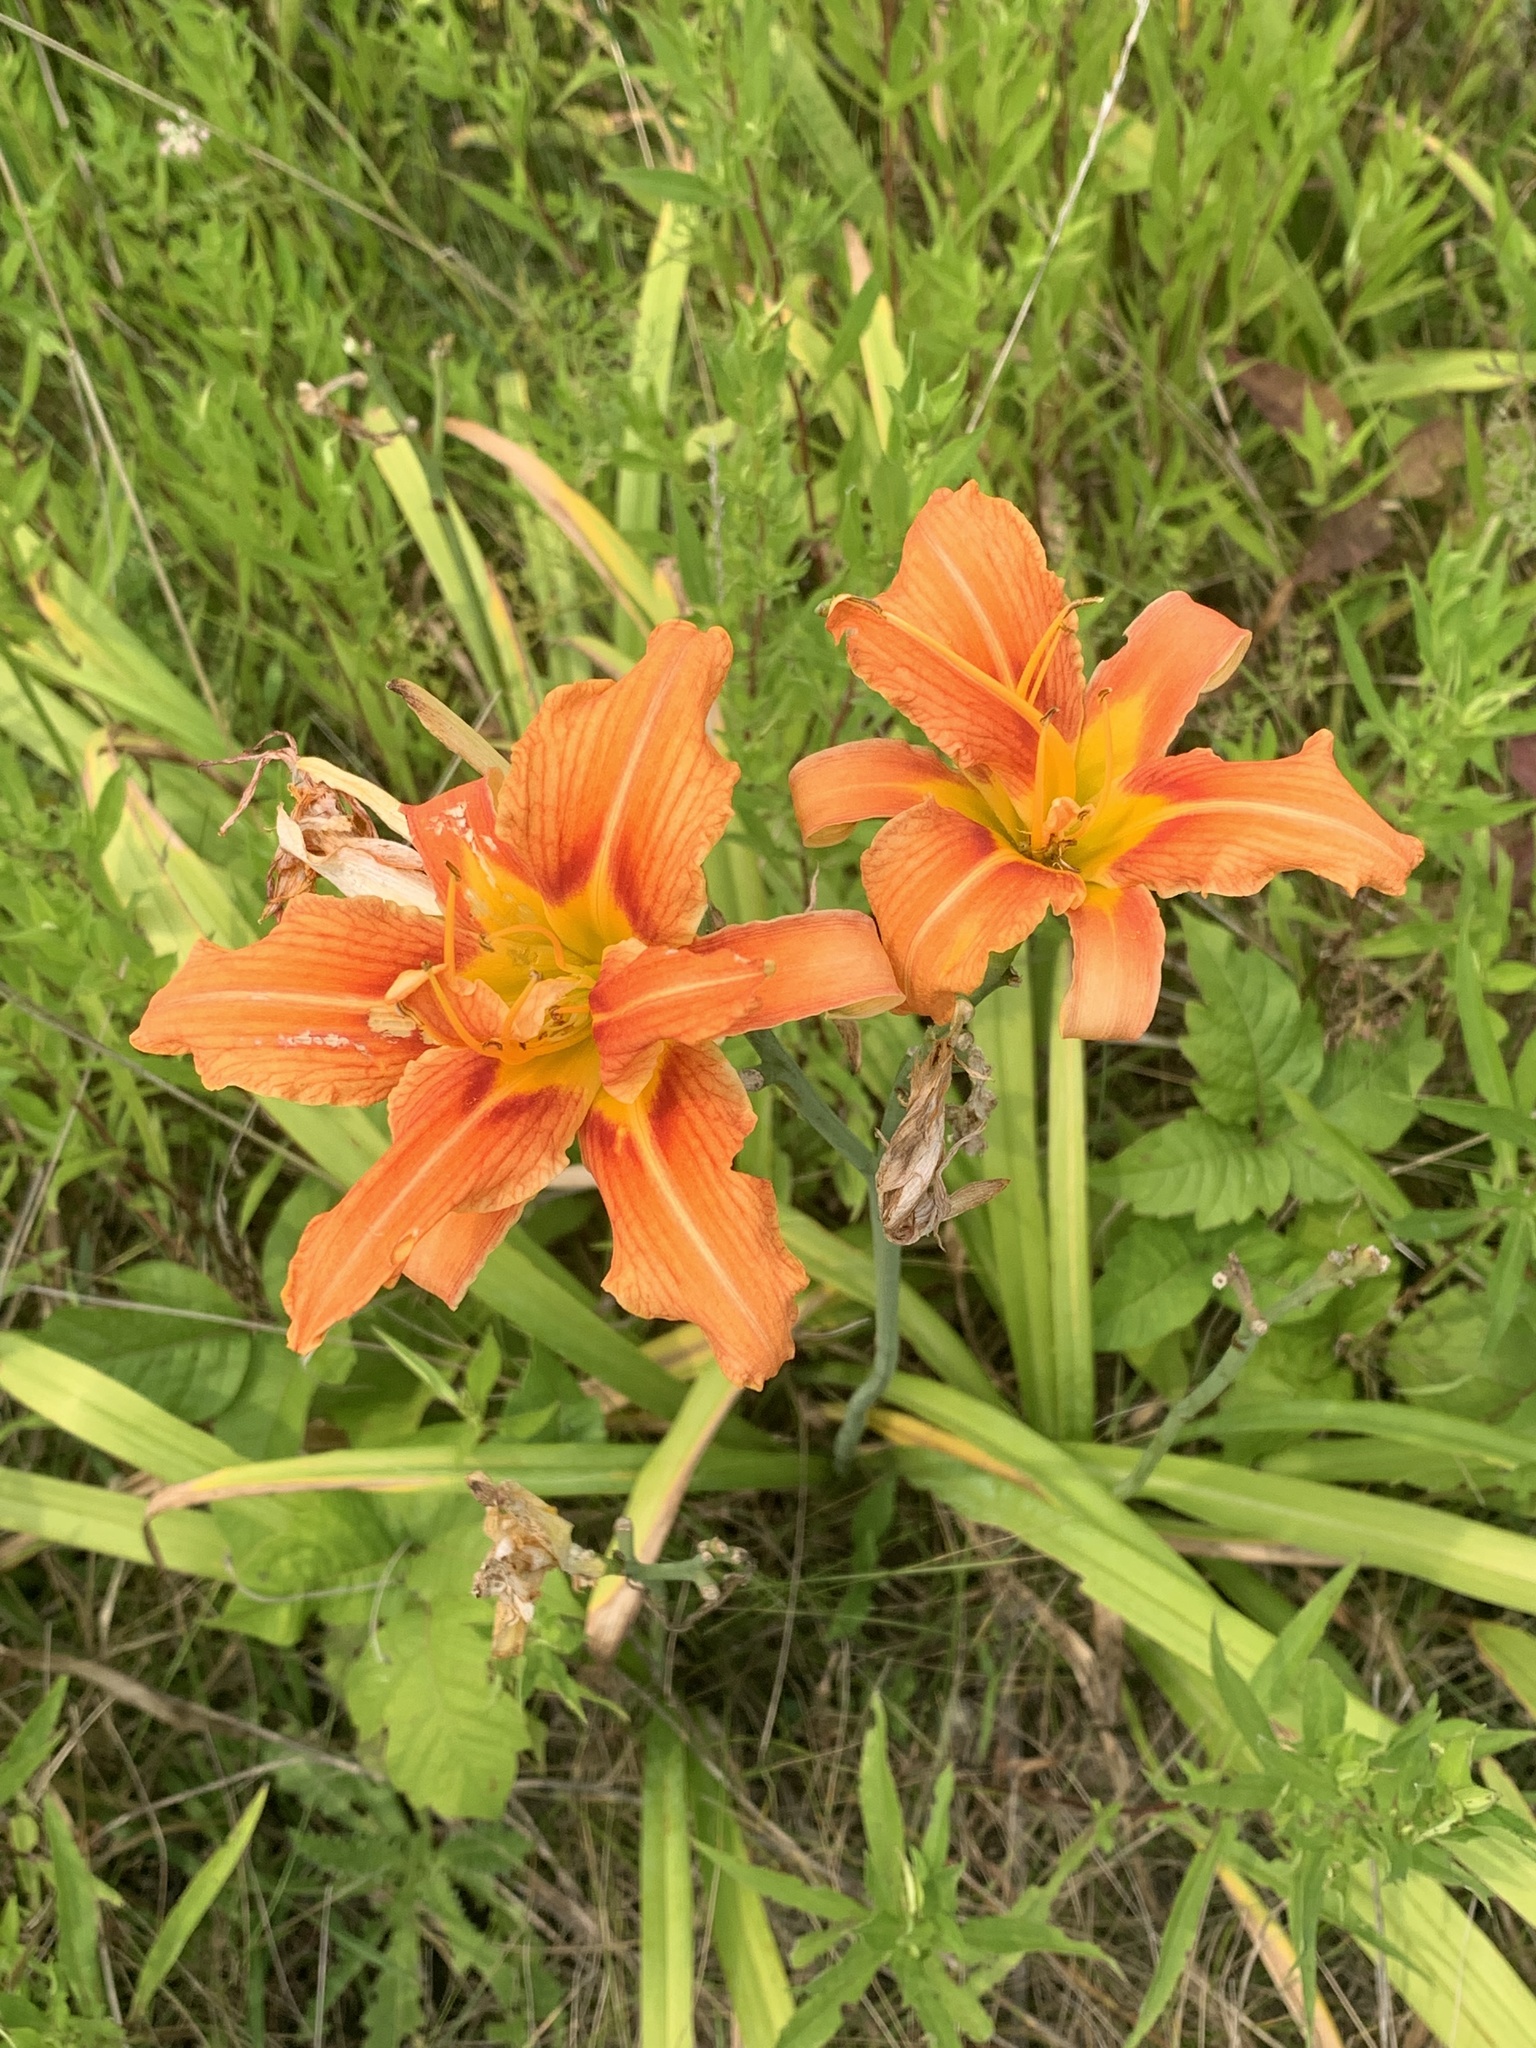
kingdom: Plantae
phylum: Tracheophyta
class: Liliopsida
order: Asparagales
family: Asphodelaceae
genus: Hemerocallis
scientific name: Hemerocallis fulva
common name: Orange day-lily
